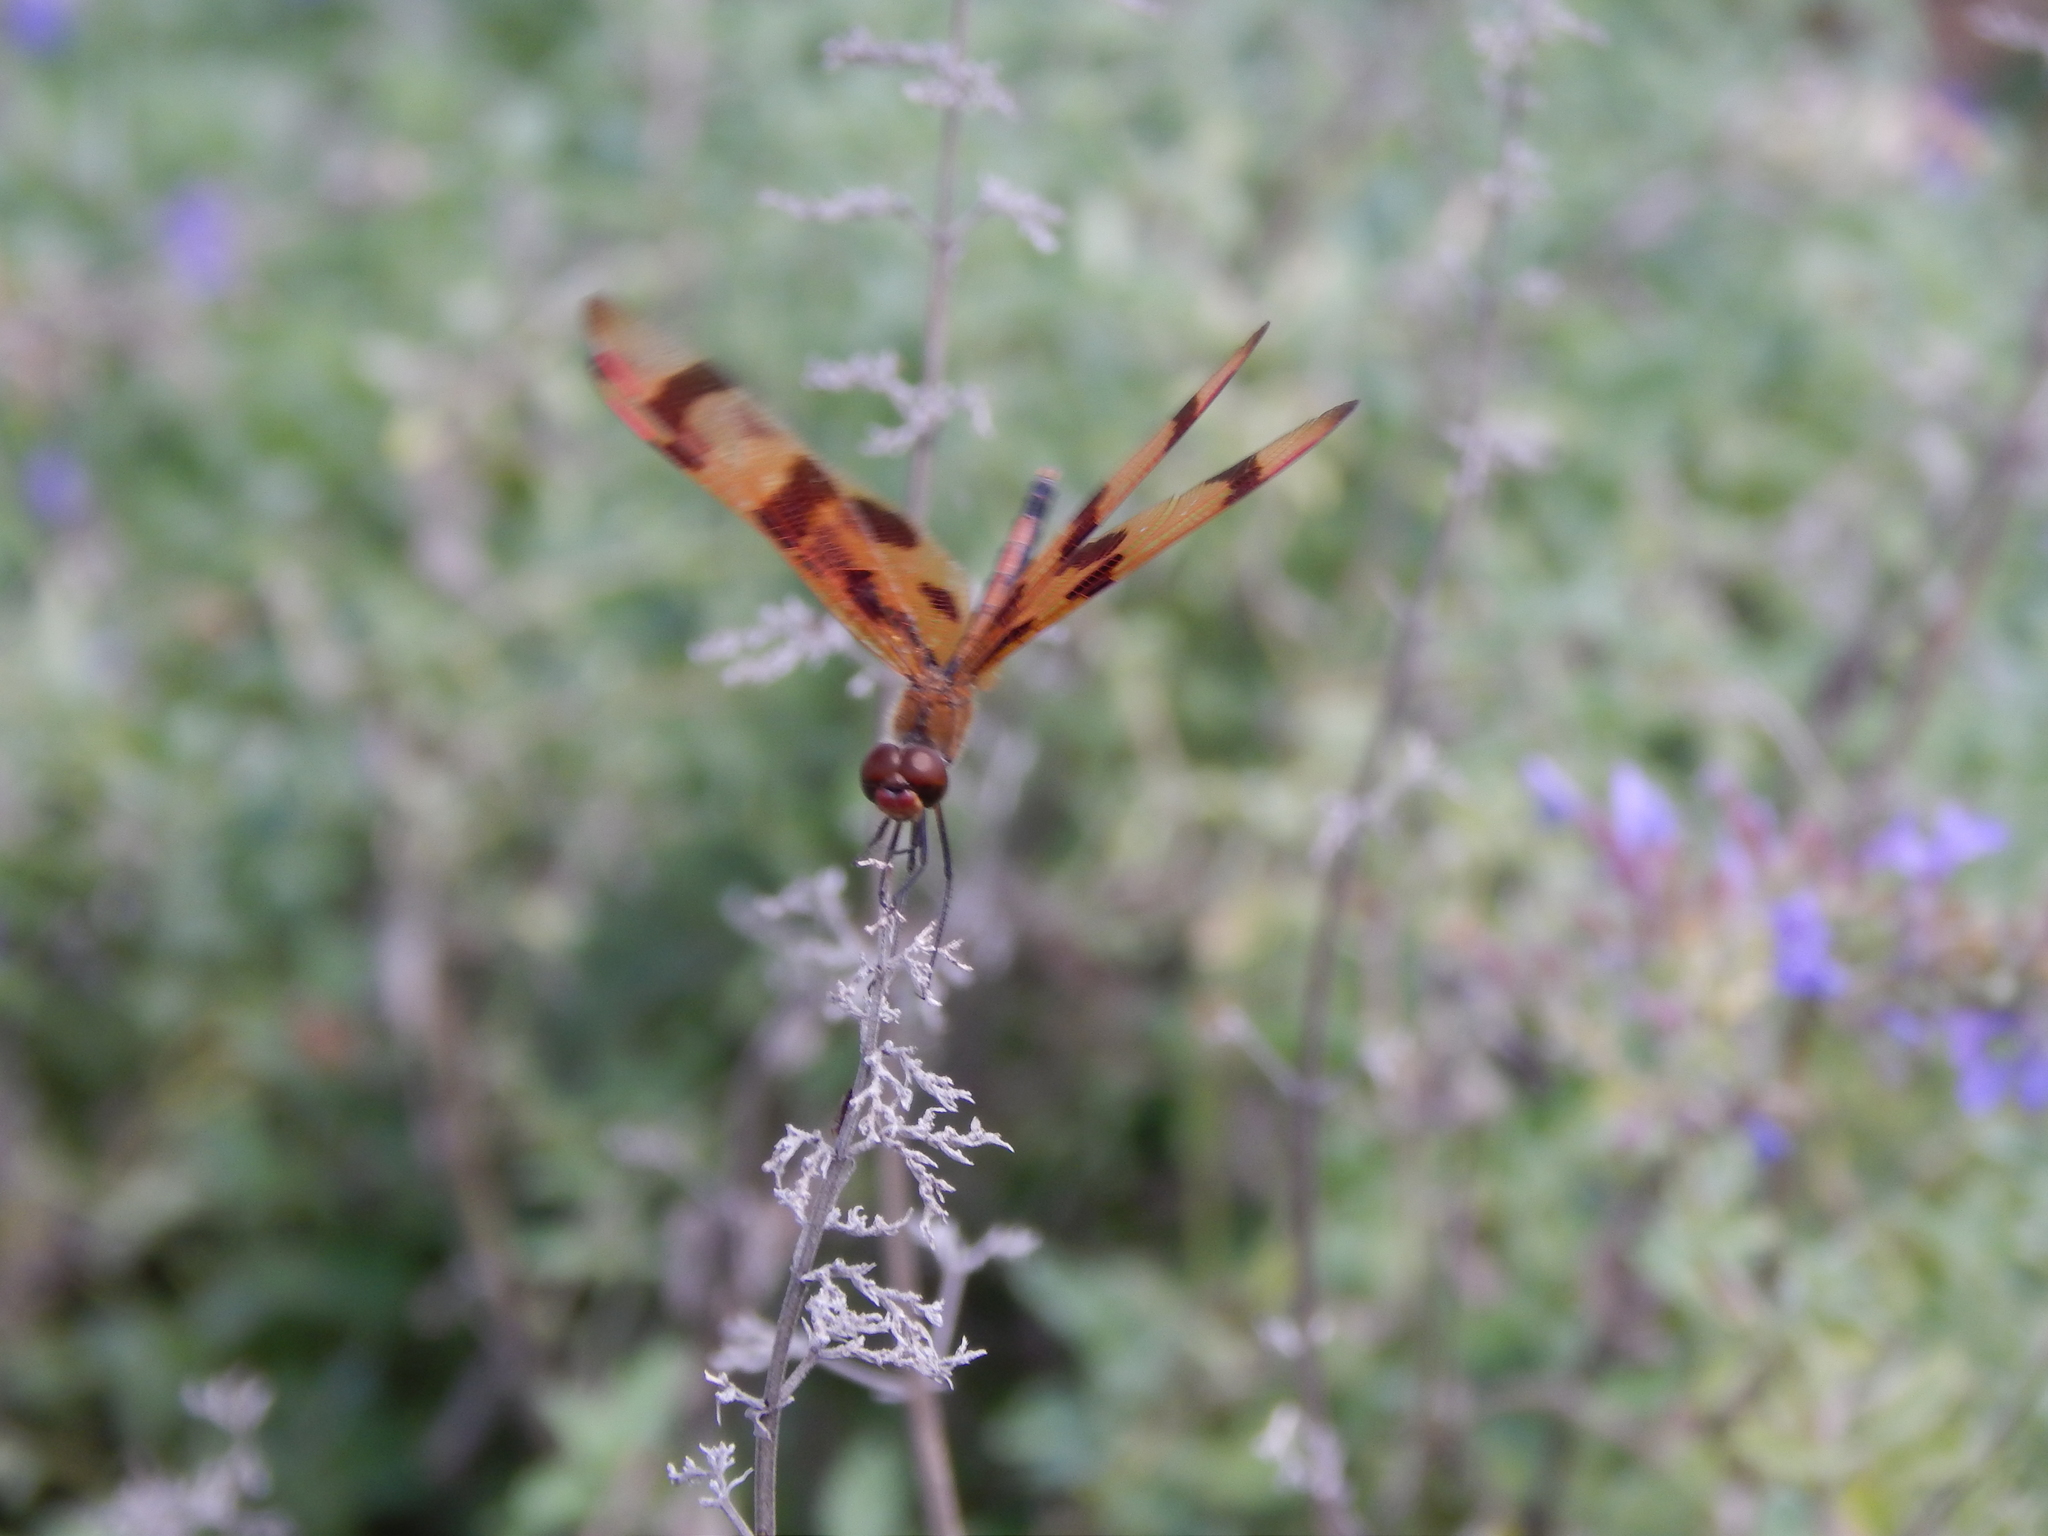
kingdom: Animalia
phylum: Arthropoda
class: Insecta
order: Odonata
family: Libellulidae
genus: Celithemis
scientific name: Celithemis eponina
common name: Halloween pennant
